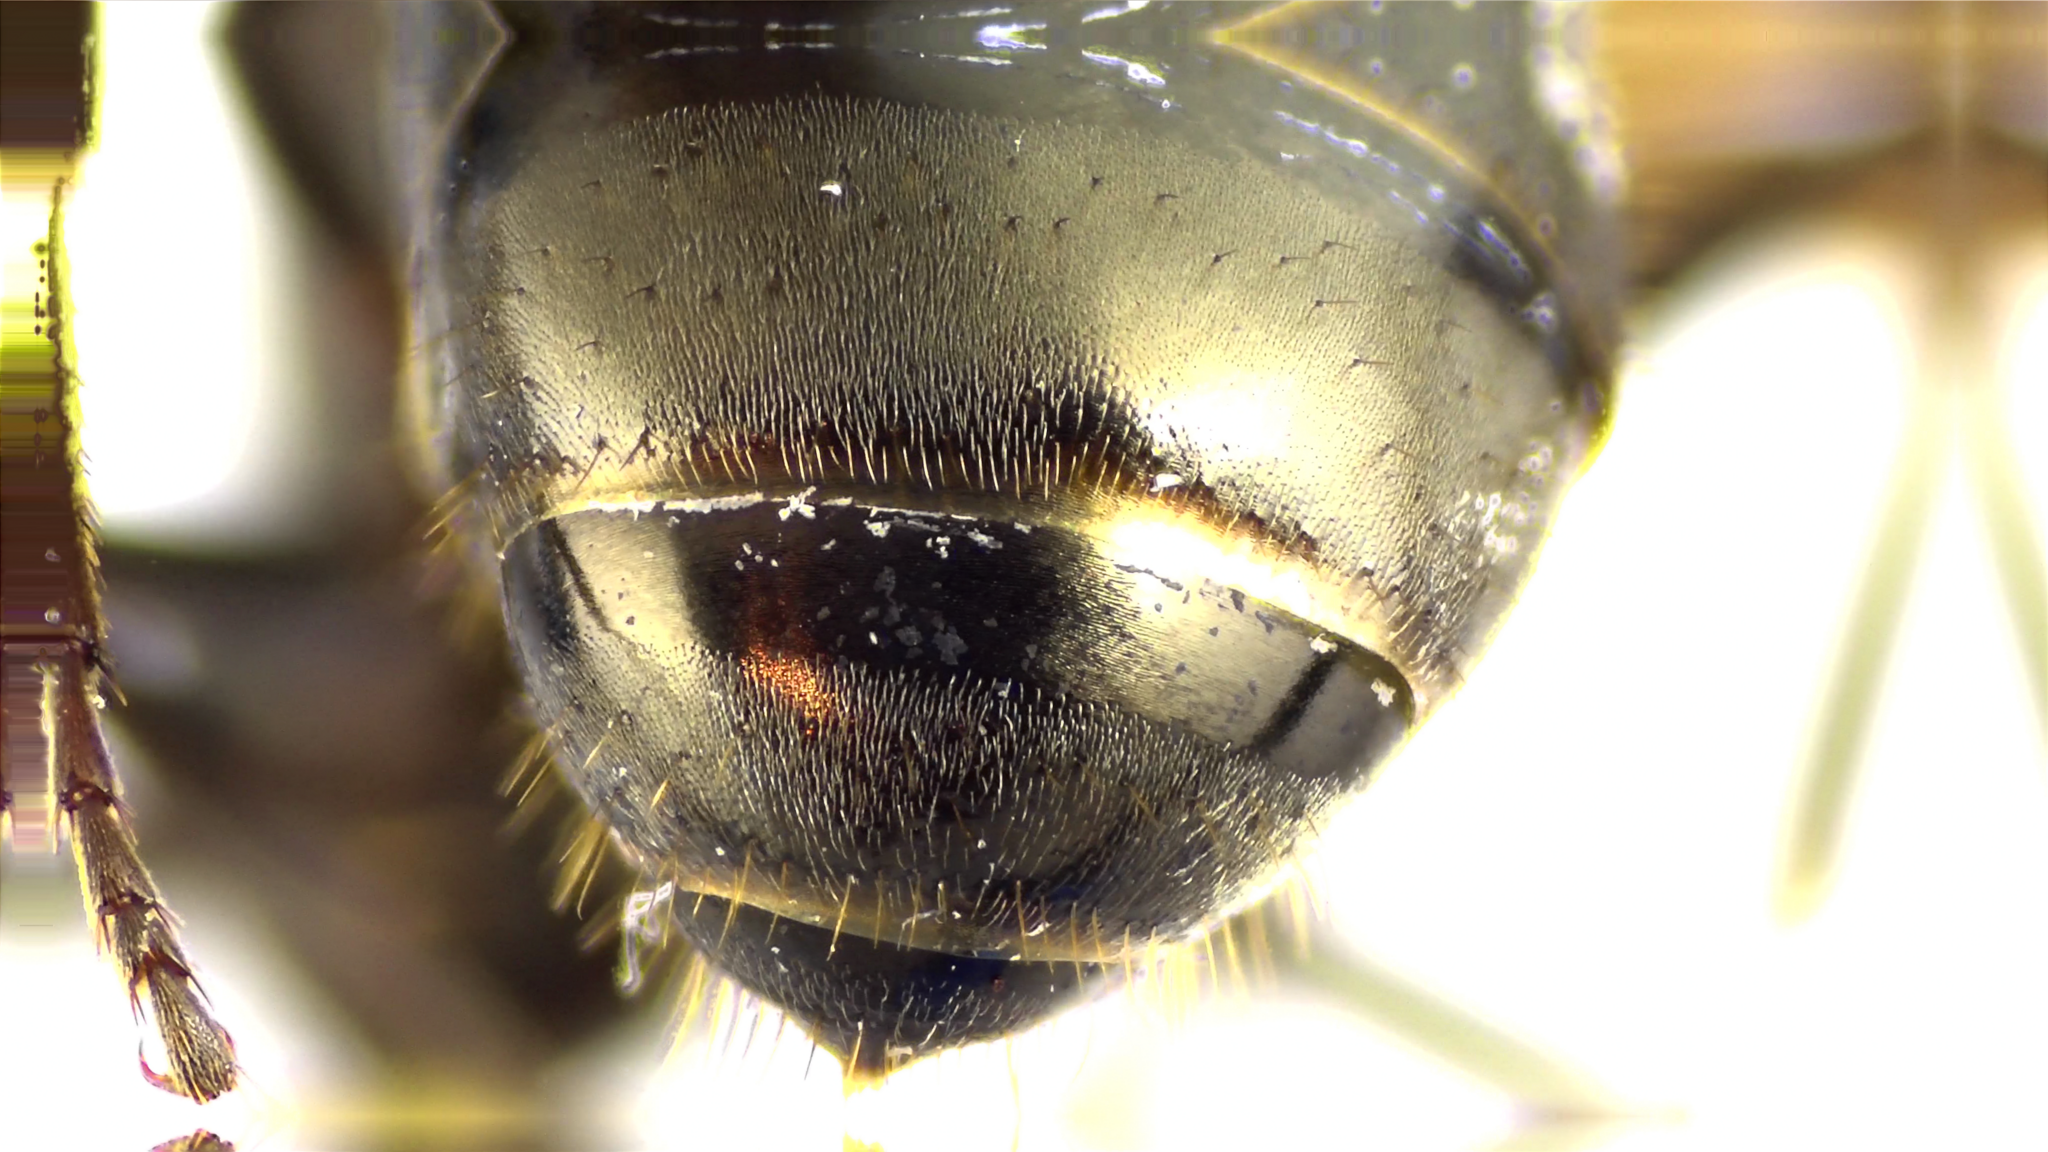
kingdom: Animalia
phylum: Arthropoda
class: Insecta
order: Hymenoptera
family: Formicidae
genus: Formica
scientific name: Formica subsericea
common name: Silky field ant
